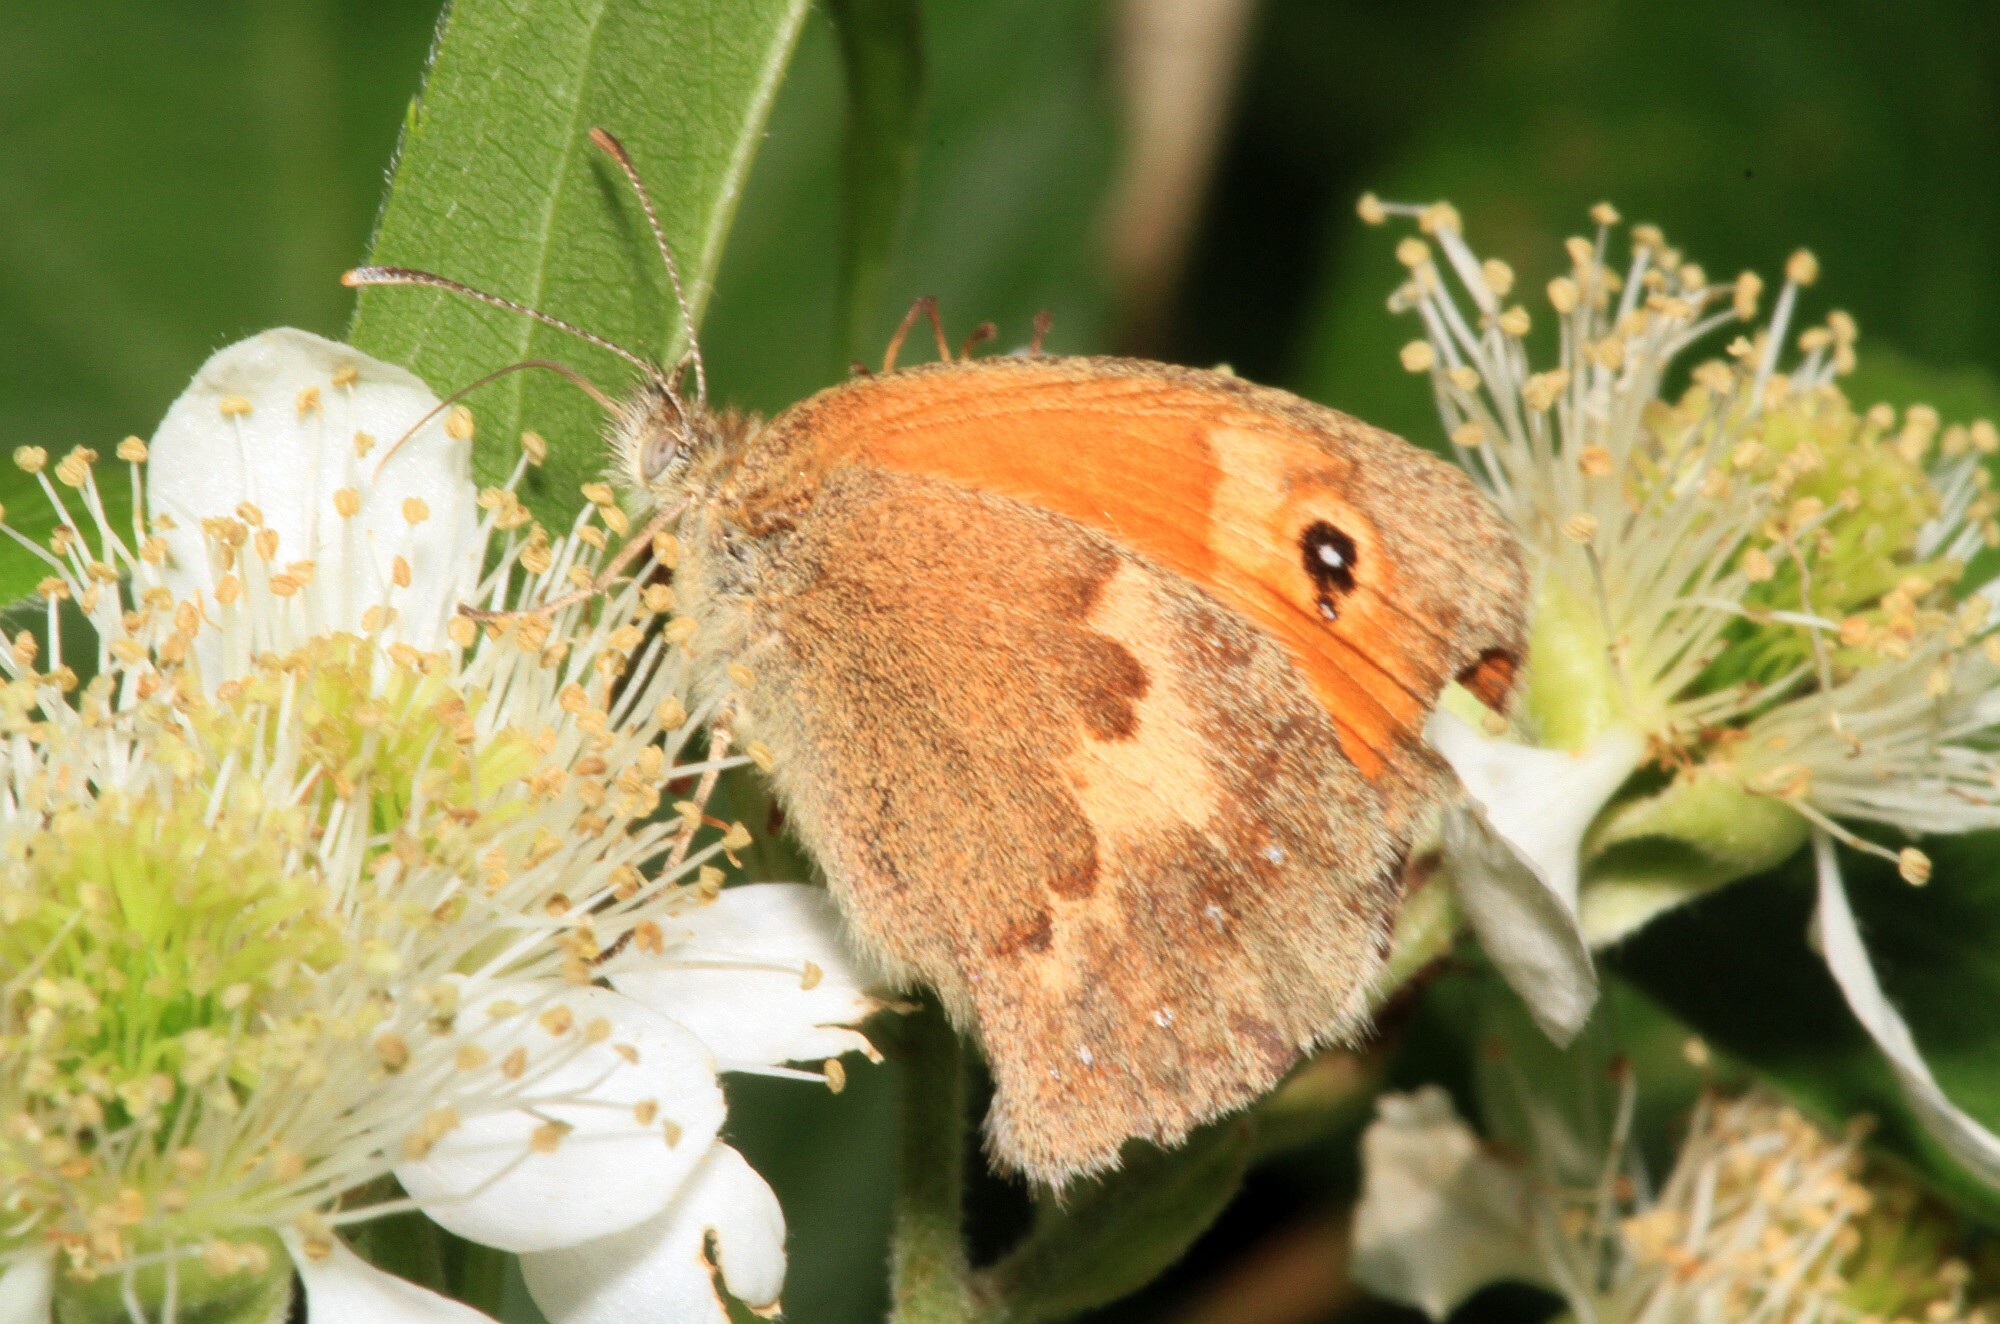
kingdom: Animalia
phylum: Arthropoda
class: Insecta
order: Lepidoptera
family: Nymphalidae
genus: Coenonympha
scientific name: Coenonympha pamphilus
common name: Small heath
